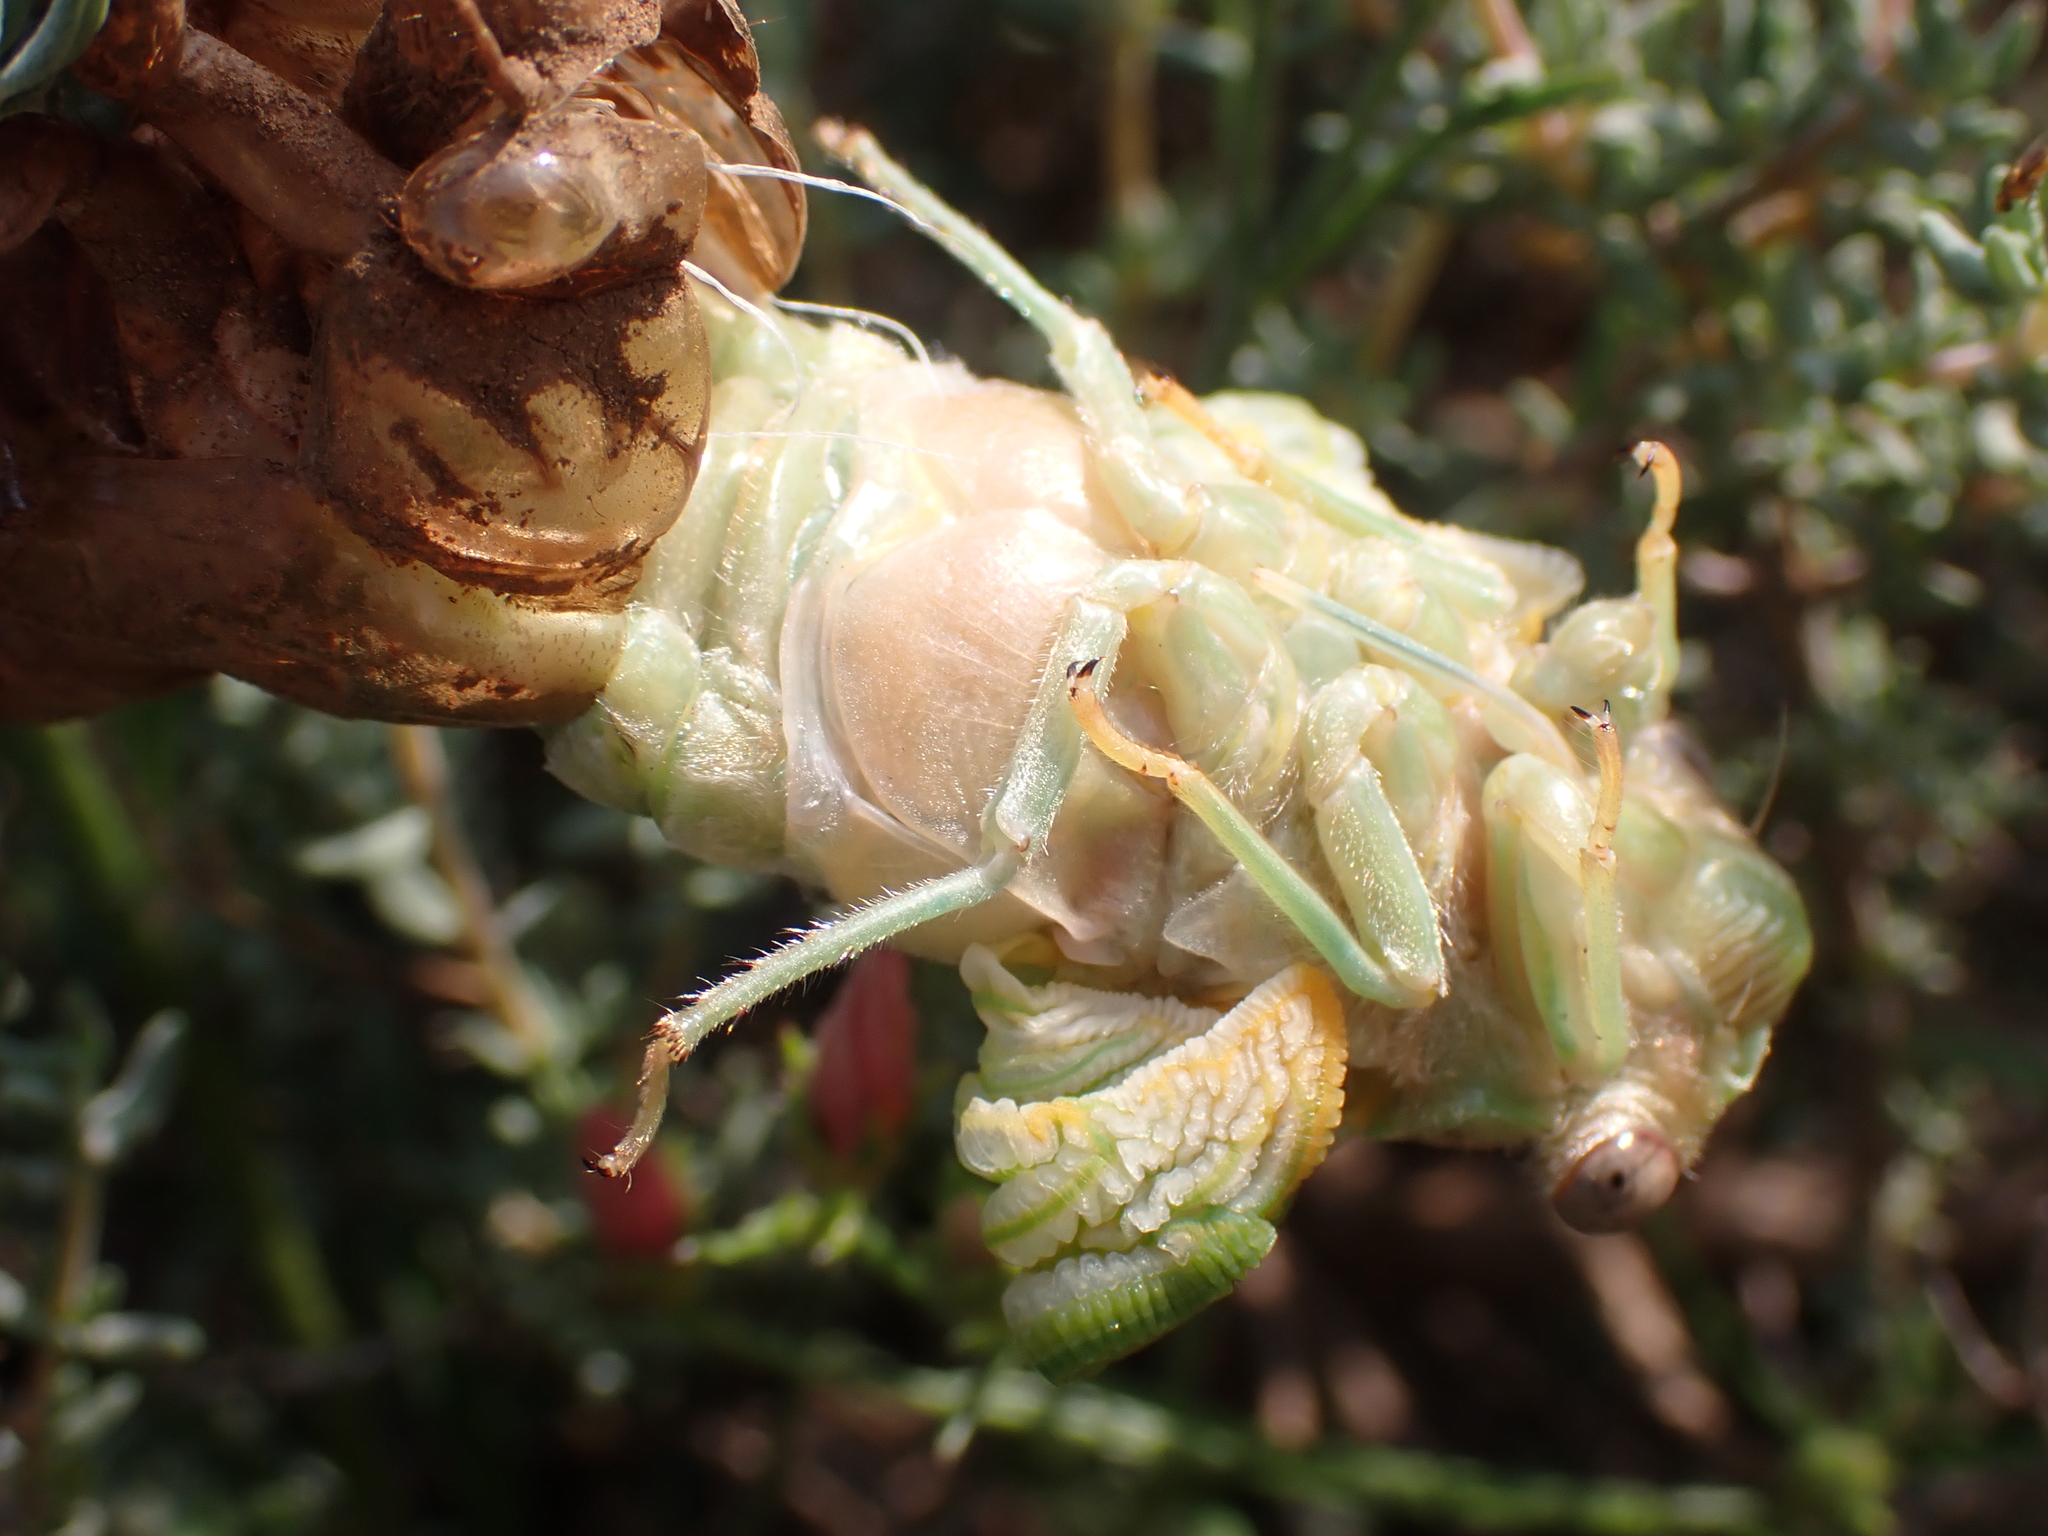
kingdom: Animalia
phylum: Arthropoda
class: Insecta
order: Hemiptera
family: Cicadidae
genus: Lyristes
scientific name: Lyristes plebejus
